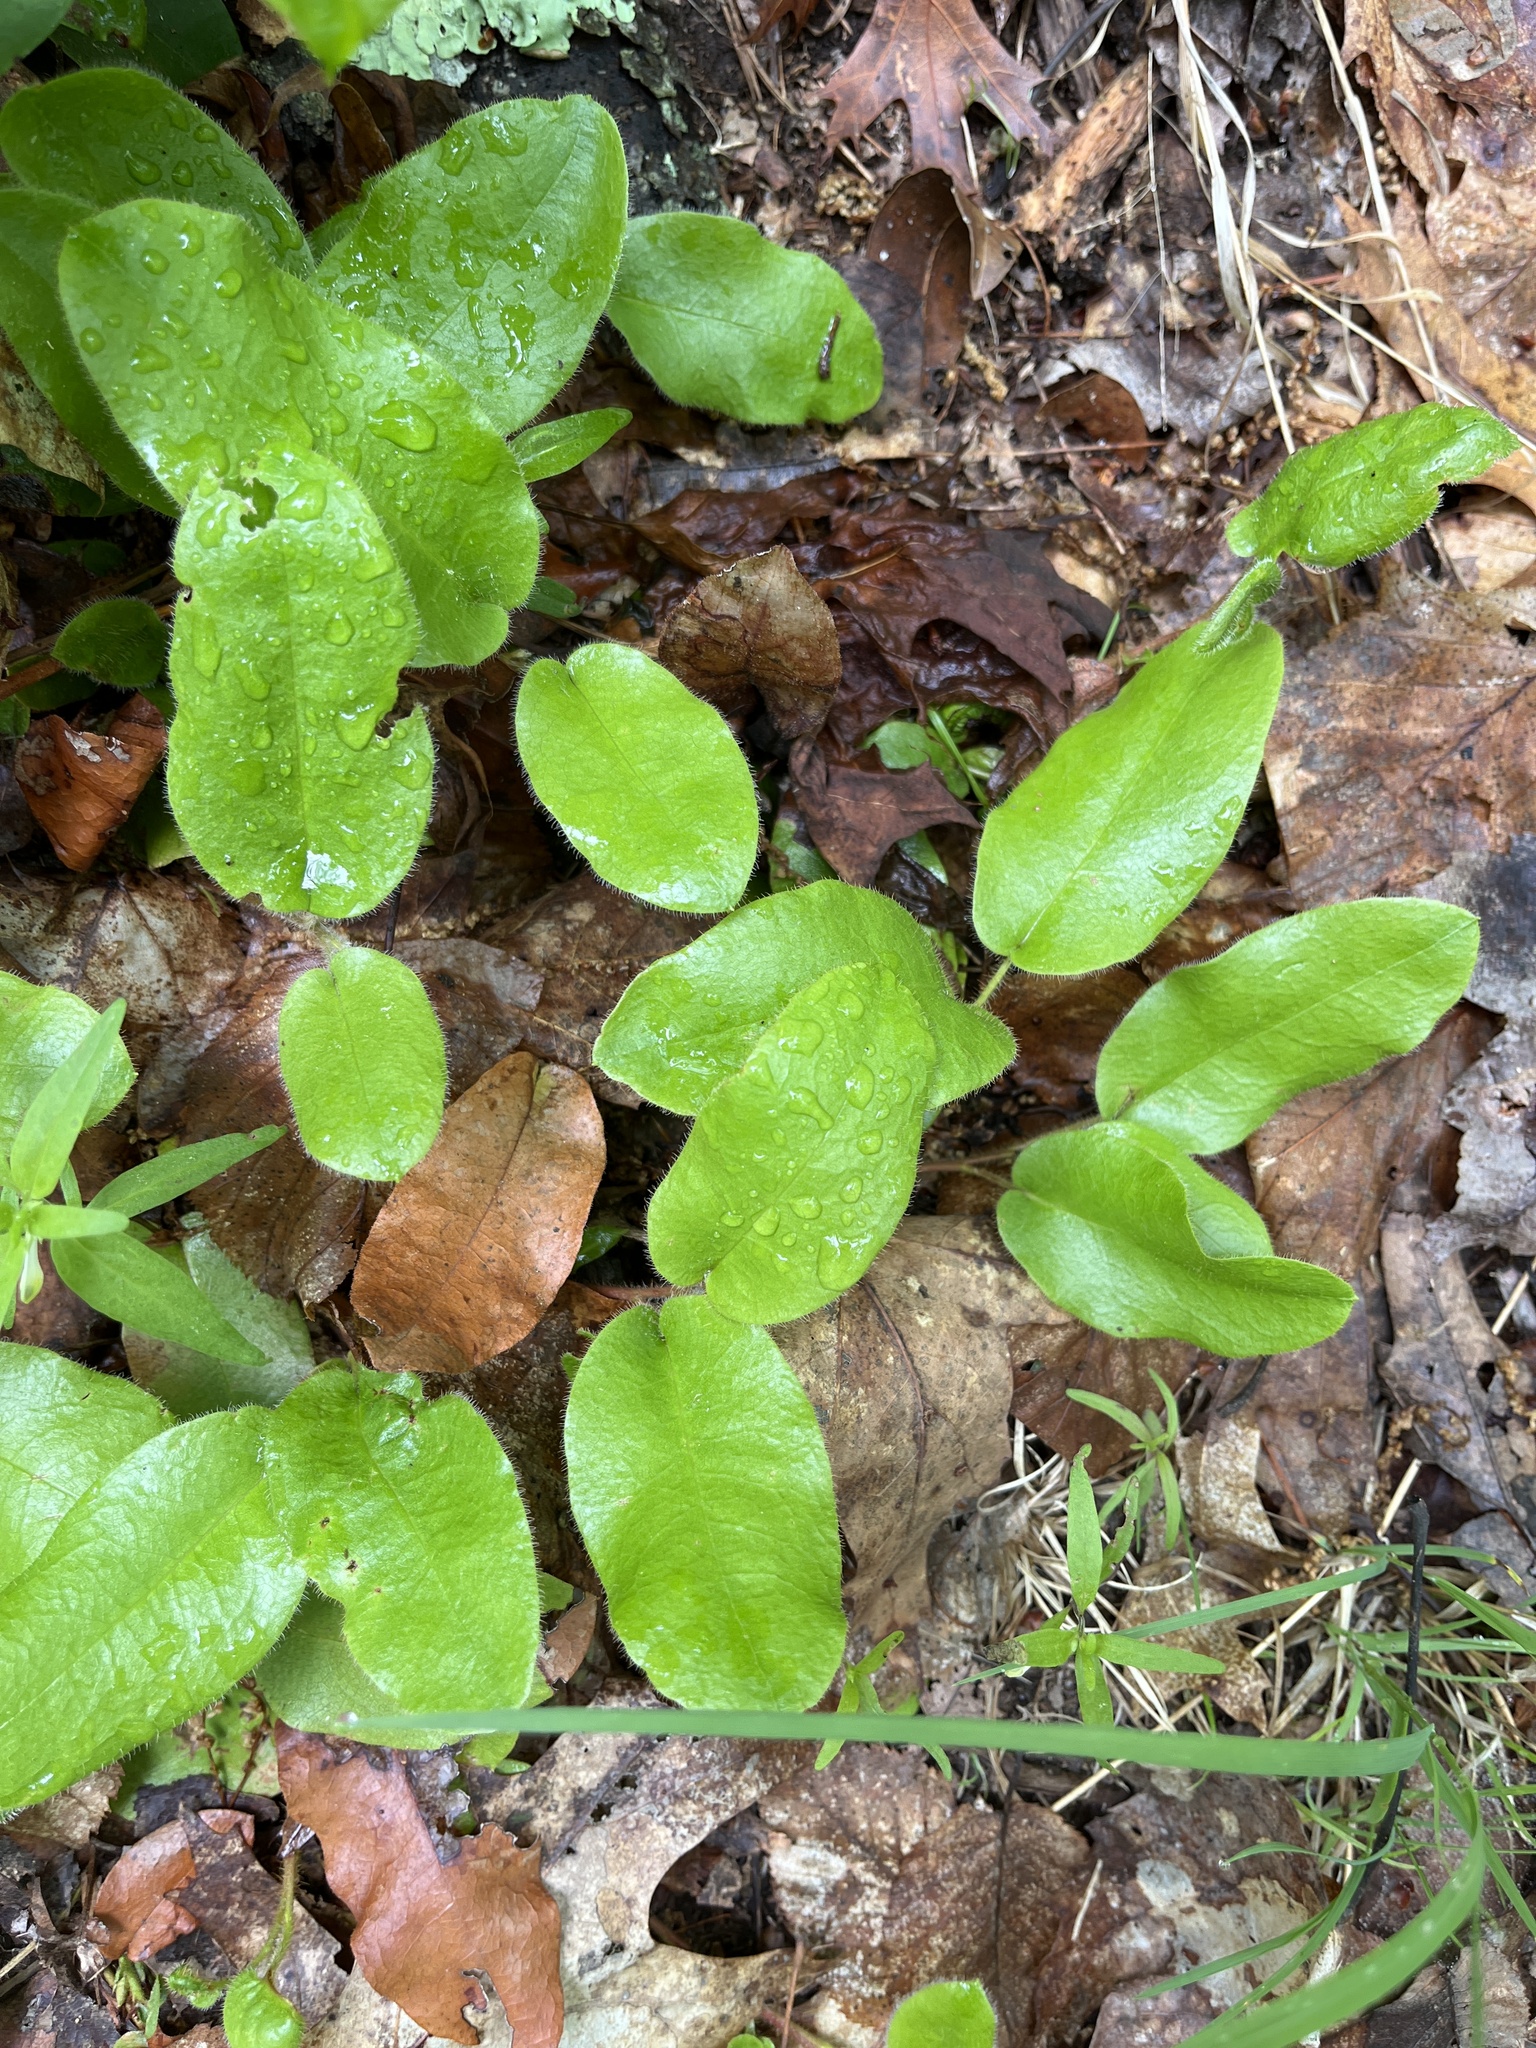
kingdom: Plantae
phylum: Tracheophyta
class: Magnoliopsida
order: Ericales
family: Ericaceae
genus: Epigaea
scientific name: Epigaea repens
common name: Gravelroot
